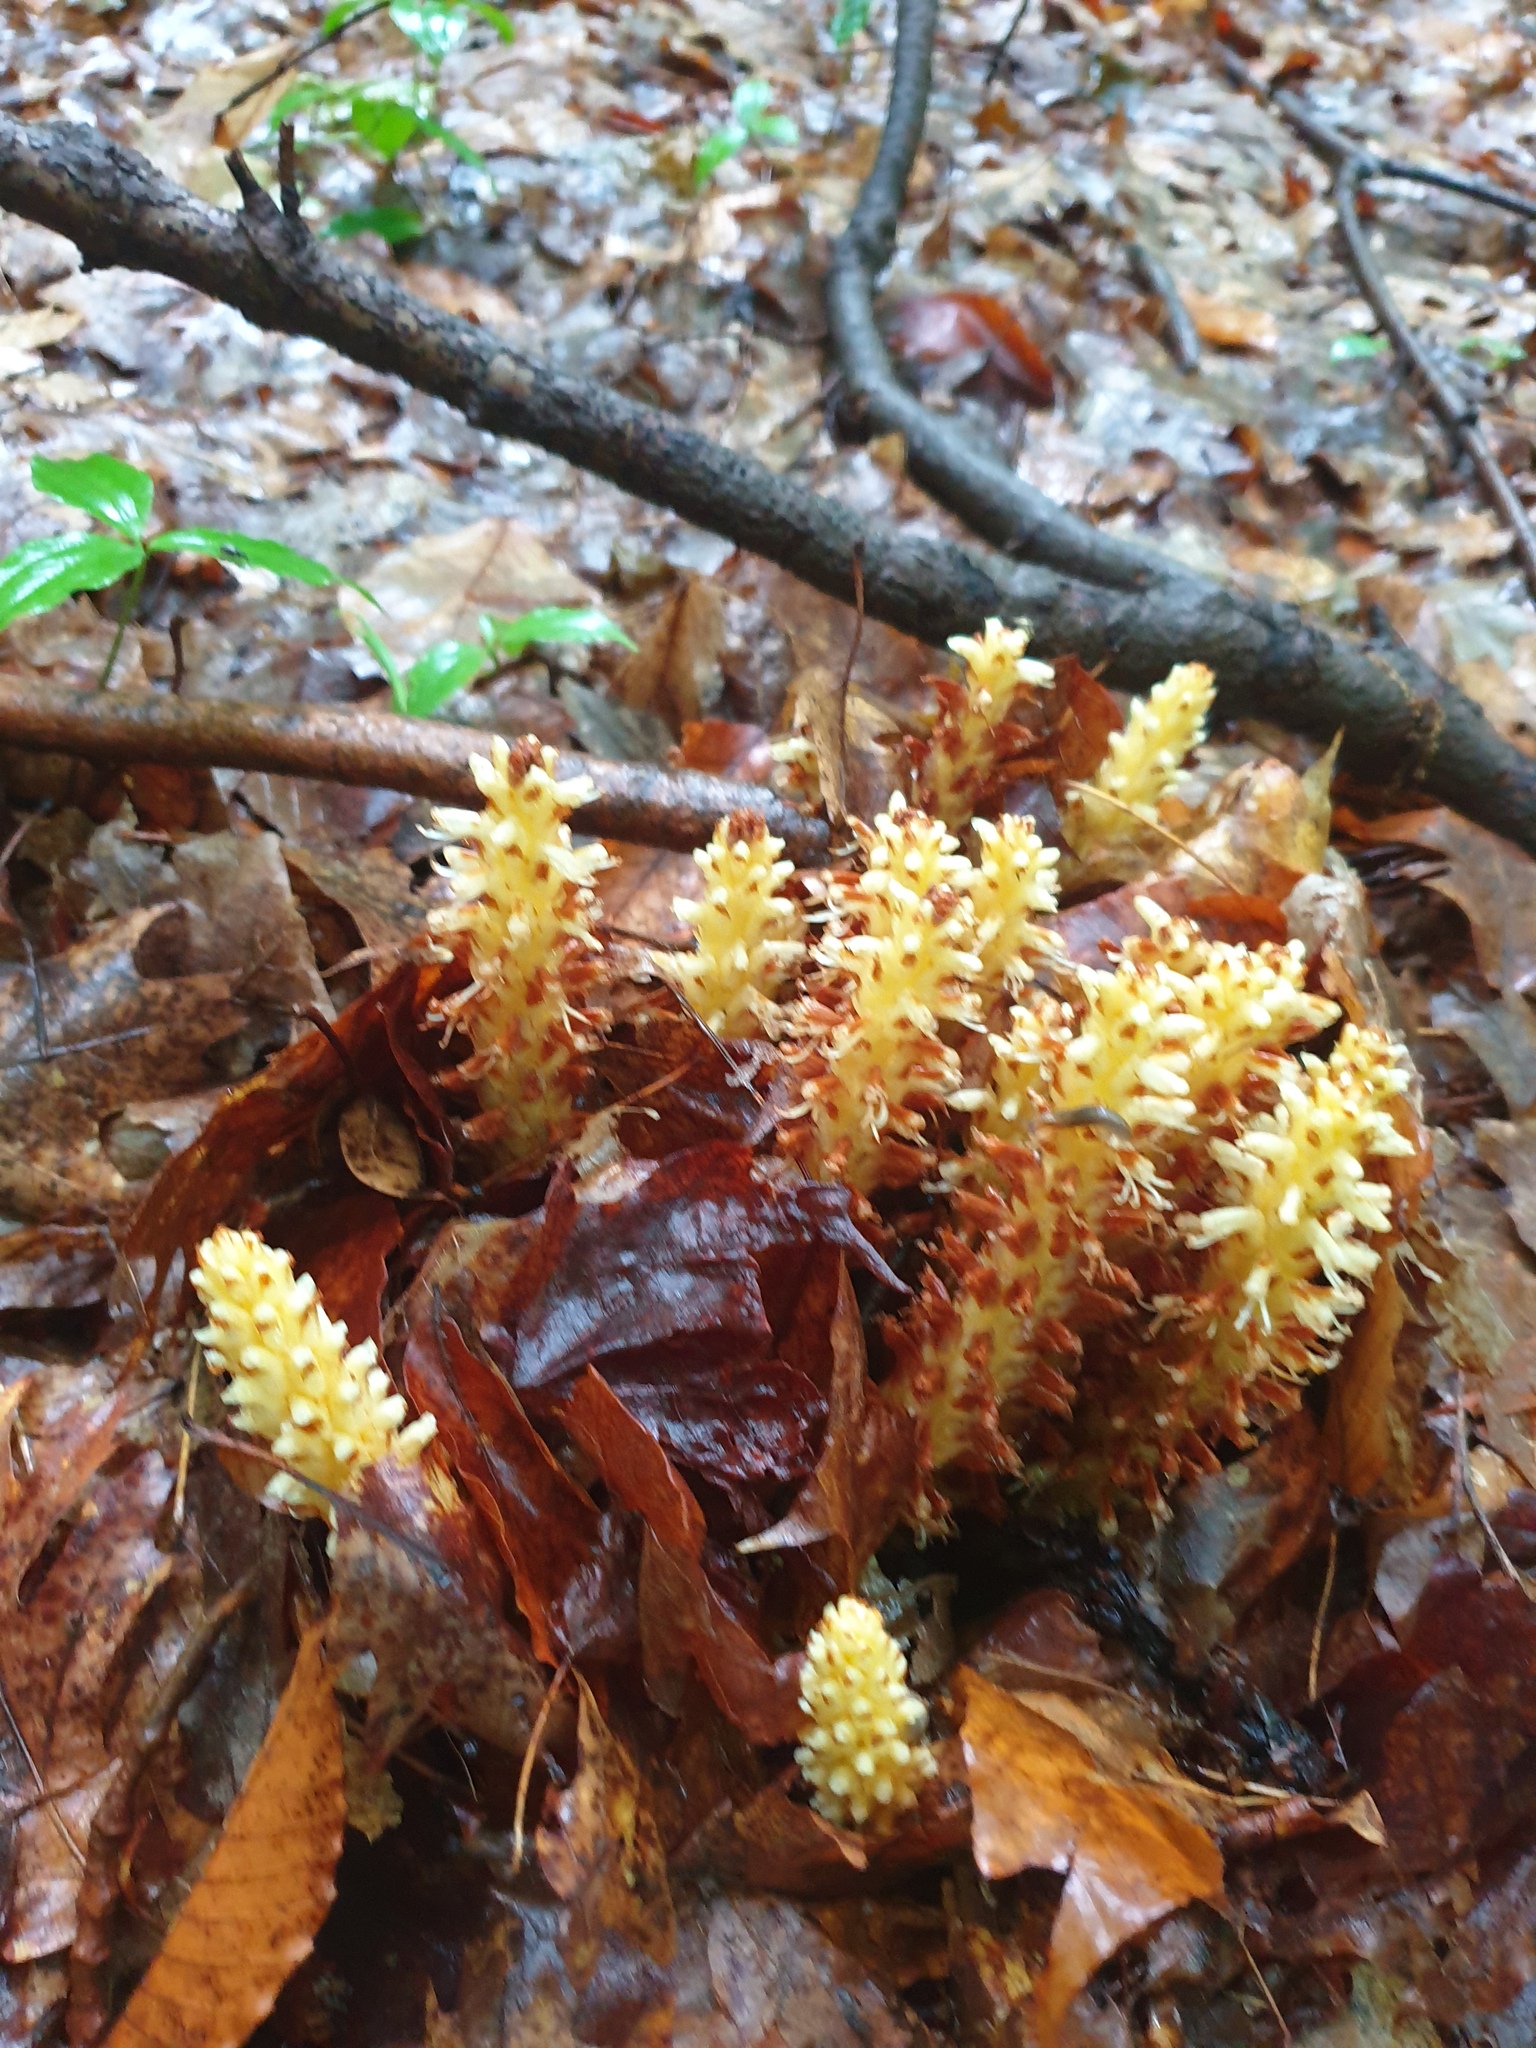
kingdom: Plantae
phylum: Tracheophyta
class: Magnoliopsida
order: Lamiales
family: Orobanchaceae
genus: Conopholis
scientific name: Conopholis americana
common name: American cancer-root
